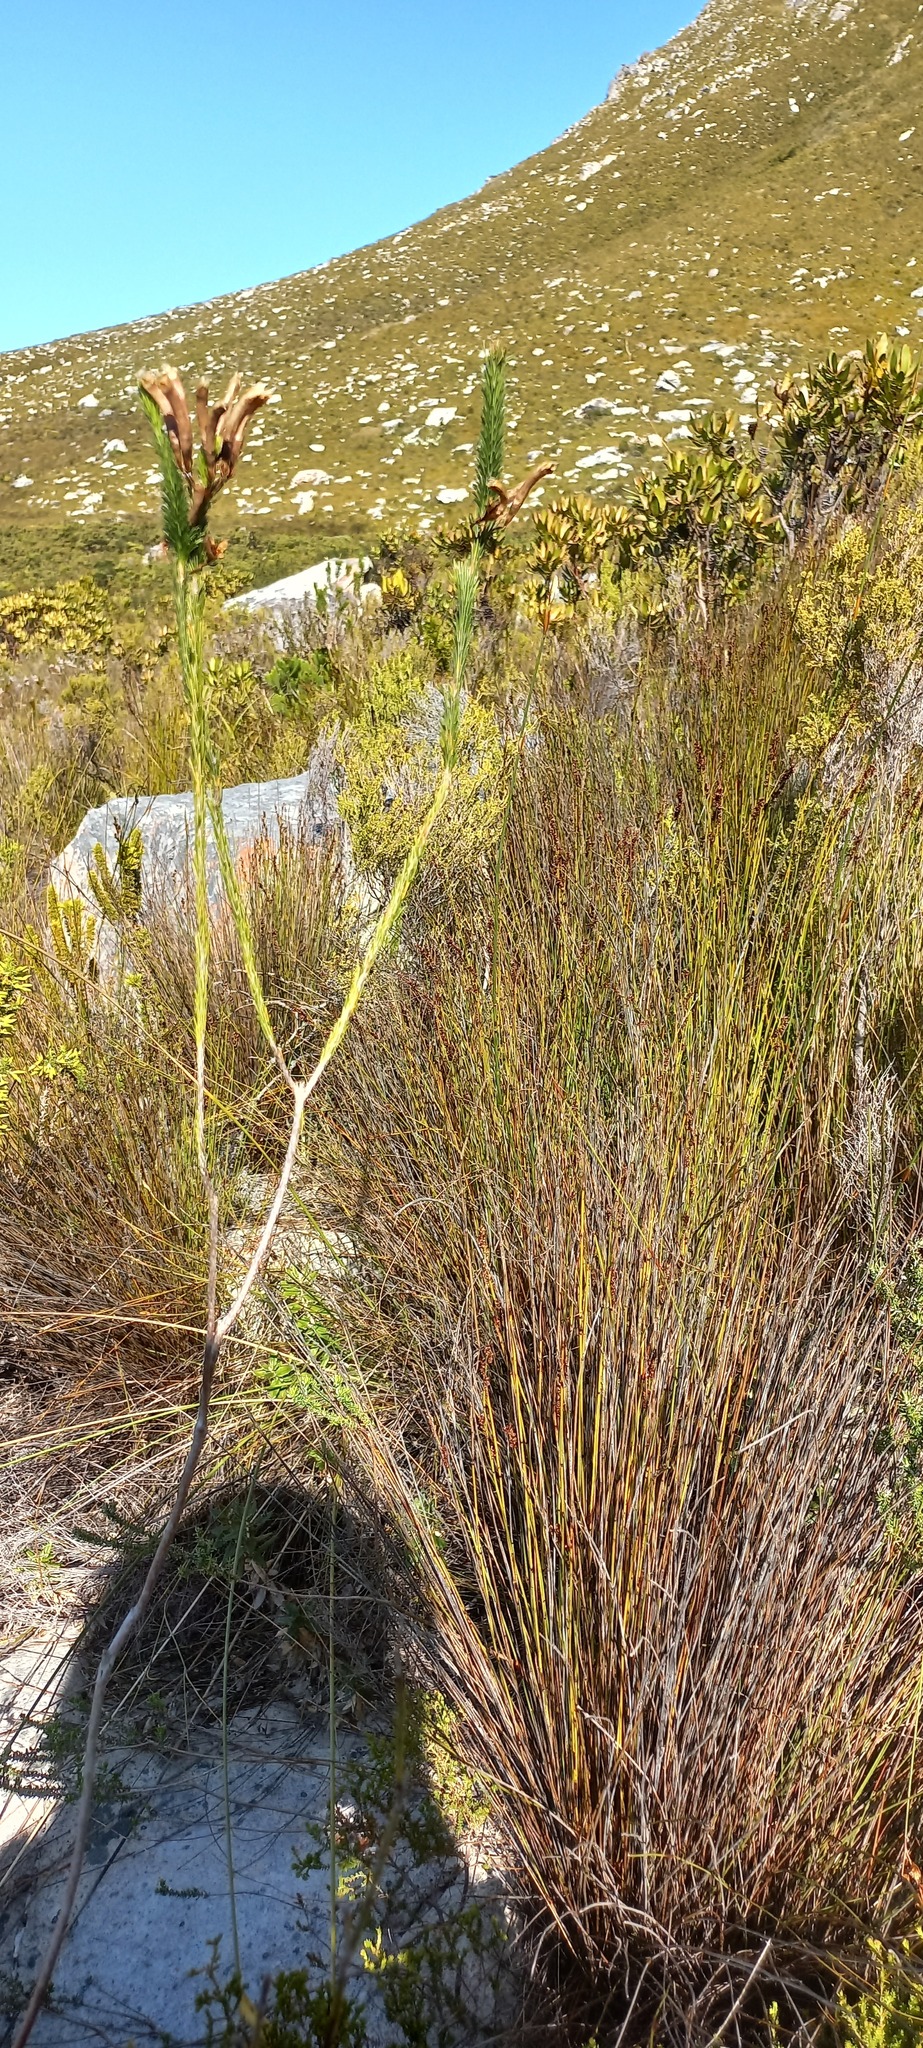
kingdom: Plantae
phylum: Tracheophyta
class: Magnoliopsida
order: Ericales
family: Ericaceae
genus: Erica
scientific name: Erica fascicularis
